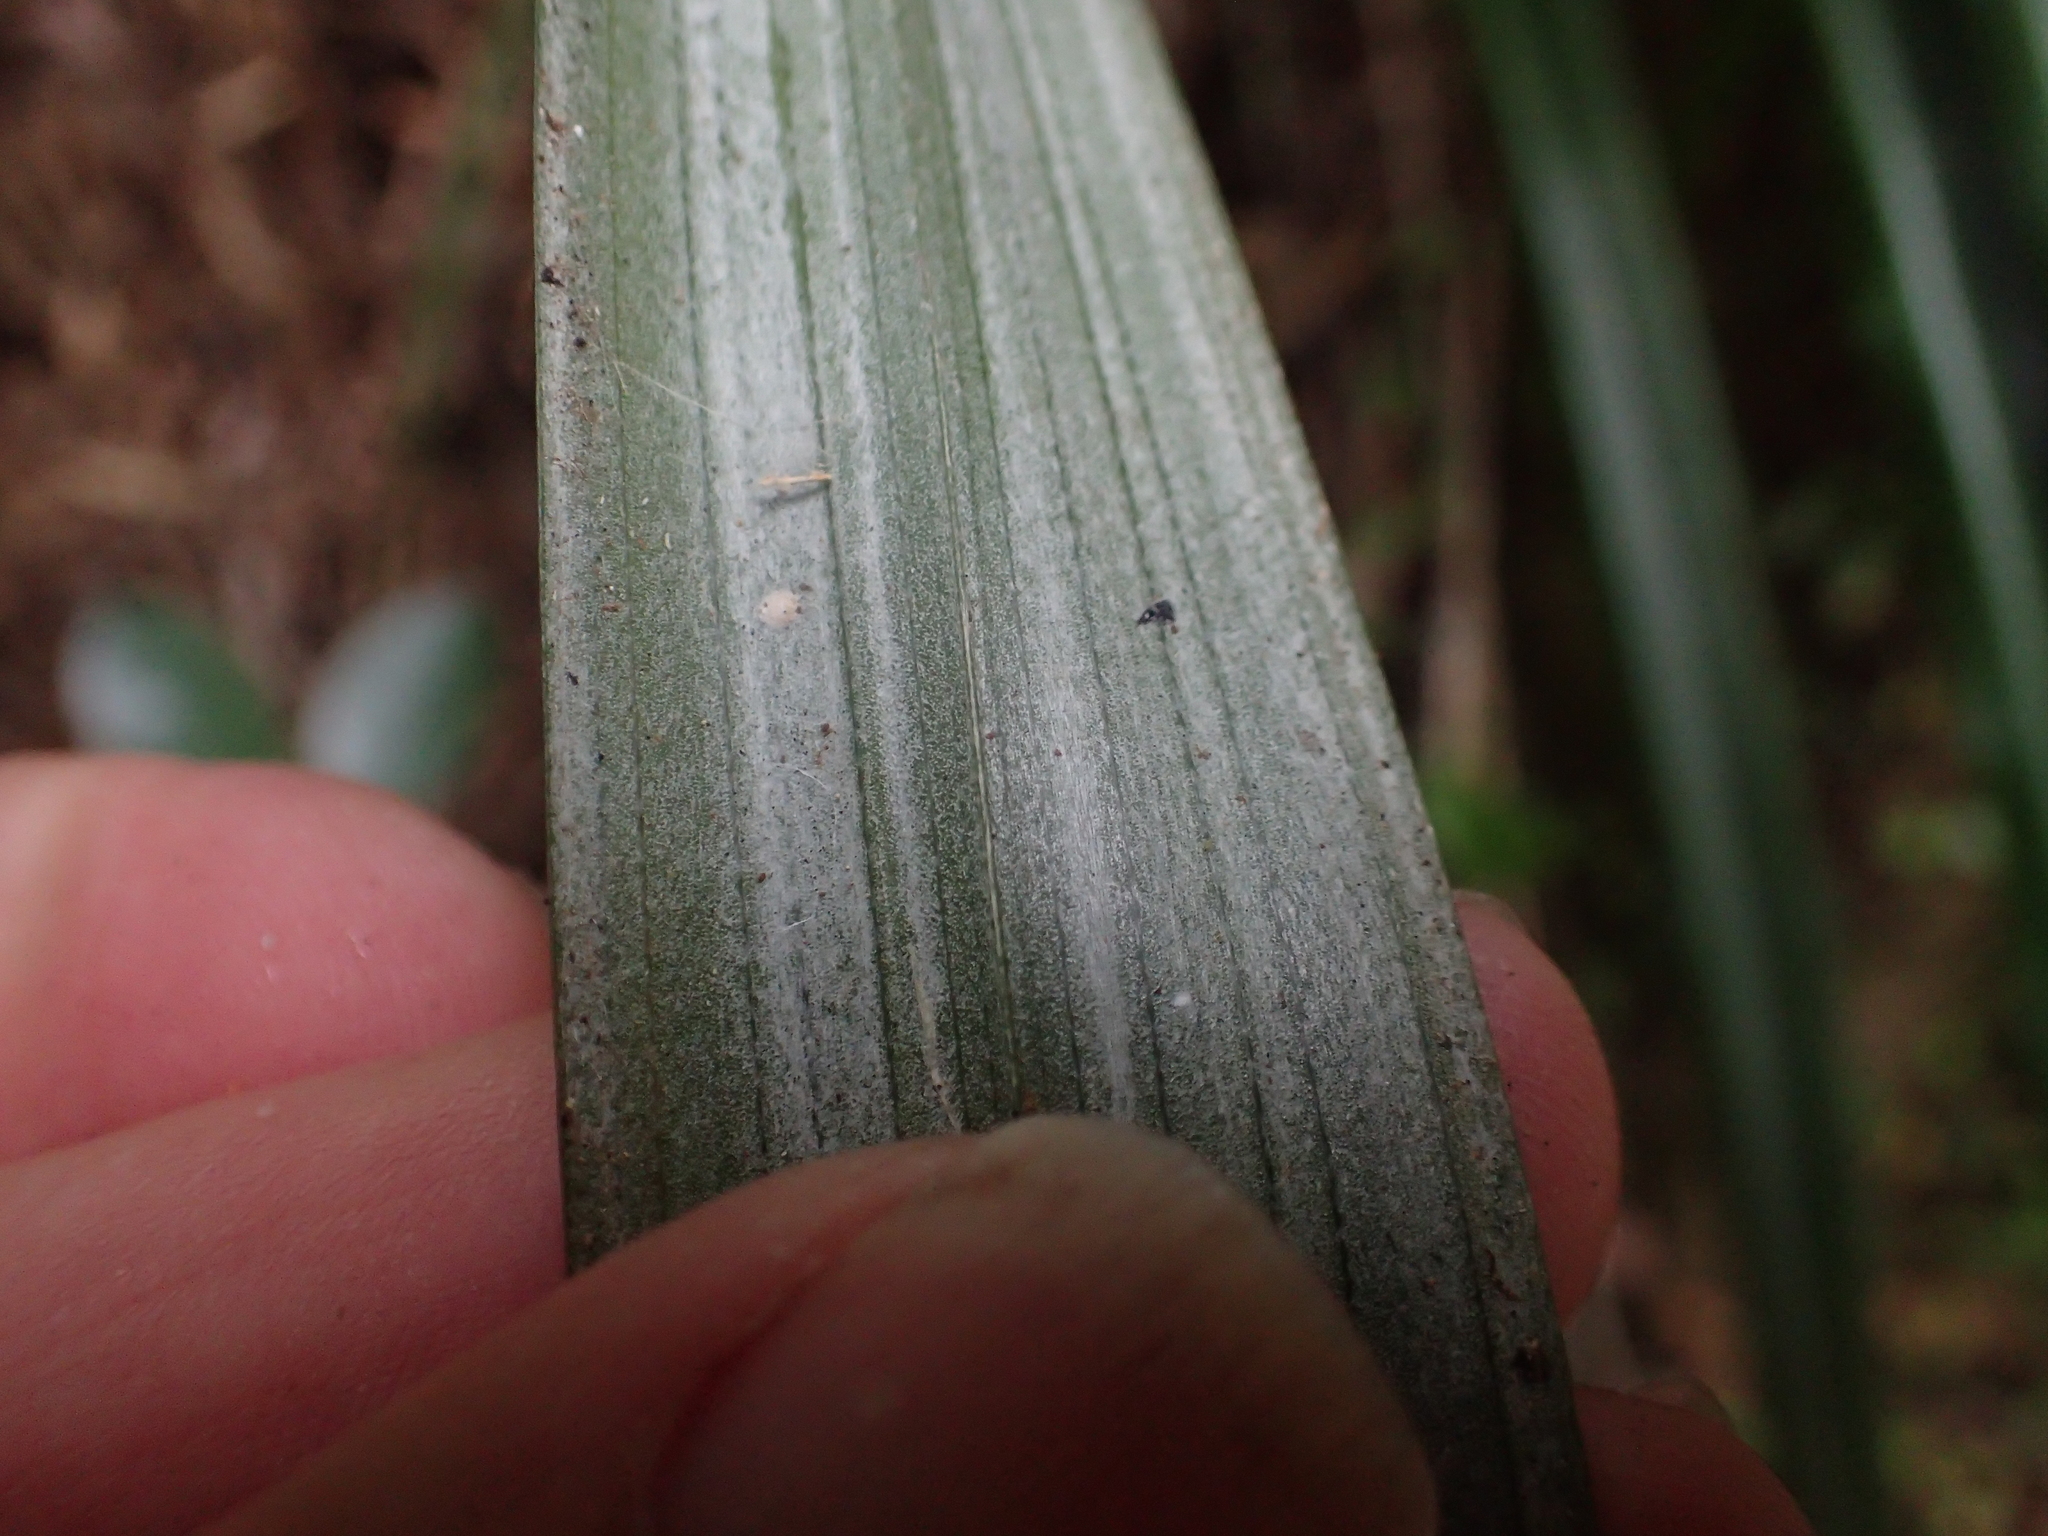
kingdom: Plantae
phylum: Tracheophyta
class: Liliopsida
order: Asparagales
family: Asteliaceae
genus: Astelia
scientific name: Astelia solandri
